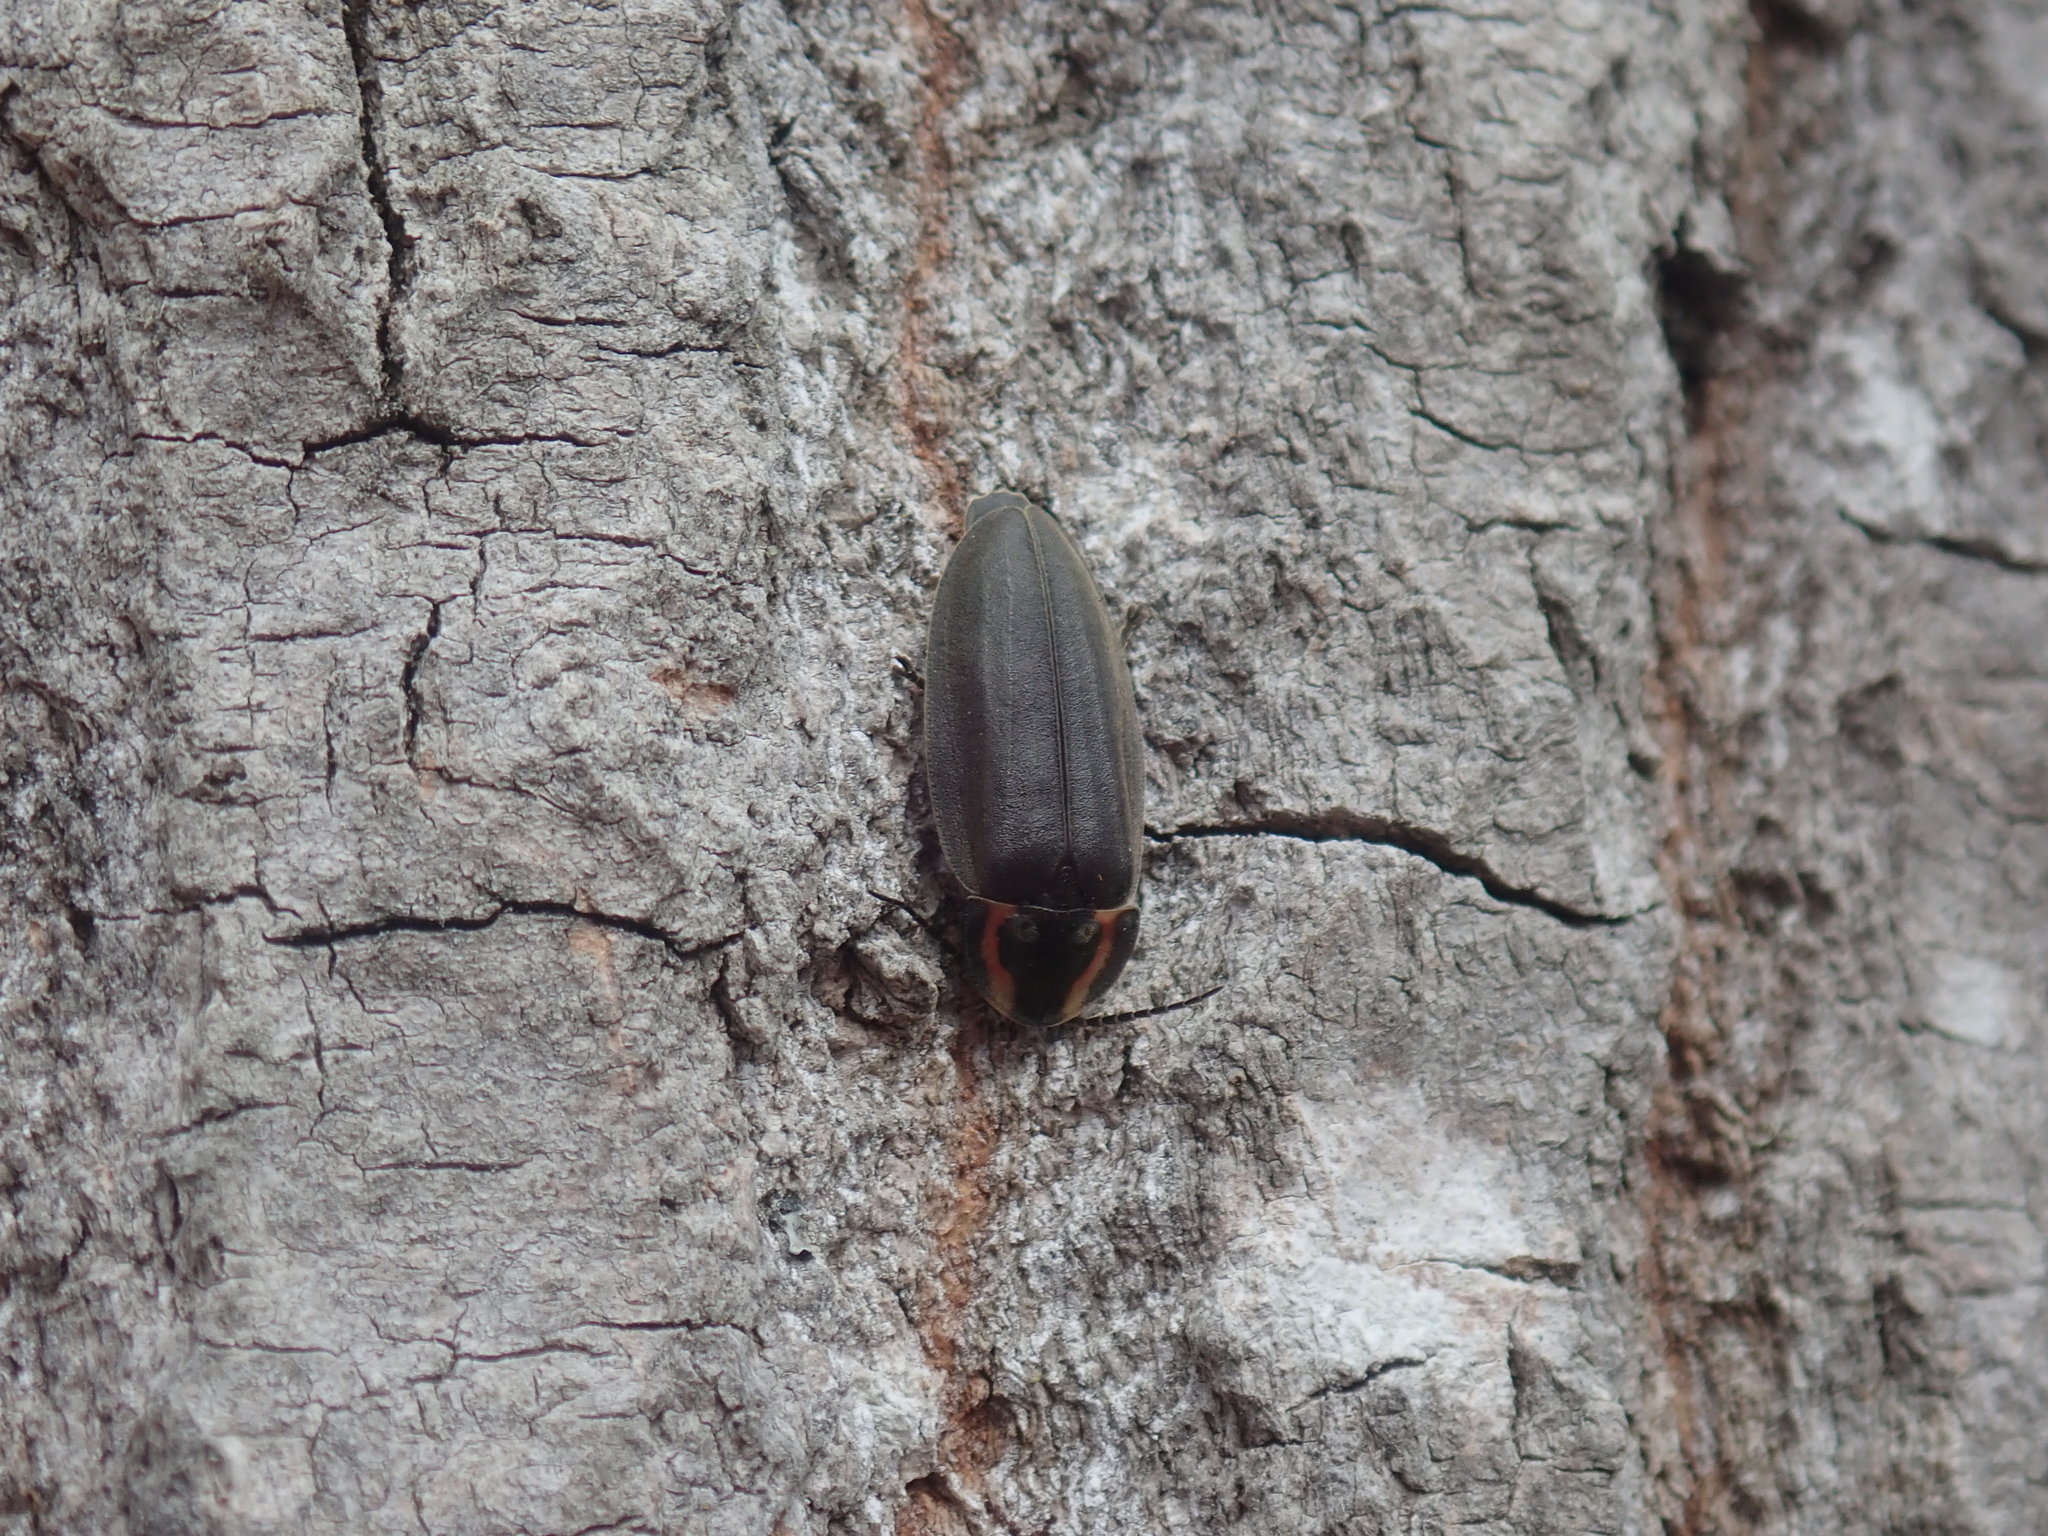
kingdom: Animalia
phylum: Arthropoda
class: Insecta
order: Coleoptera
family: Lampyridae
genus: Photinus
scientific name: Photinus corrusca
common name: Winter firefly
